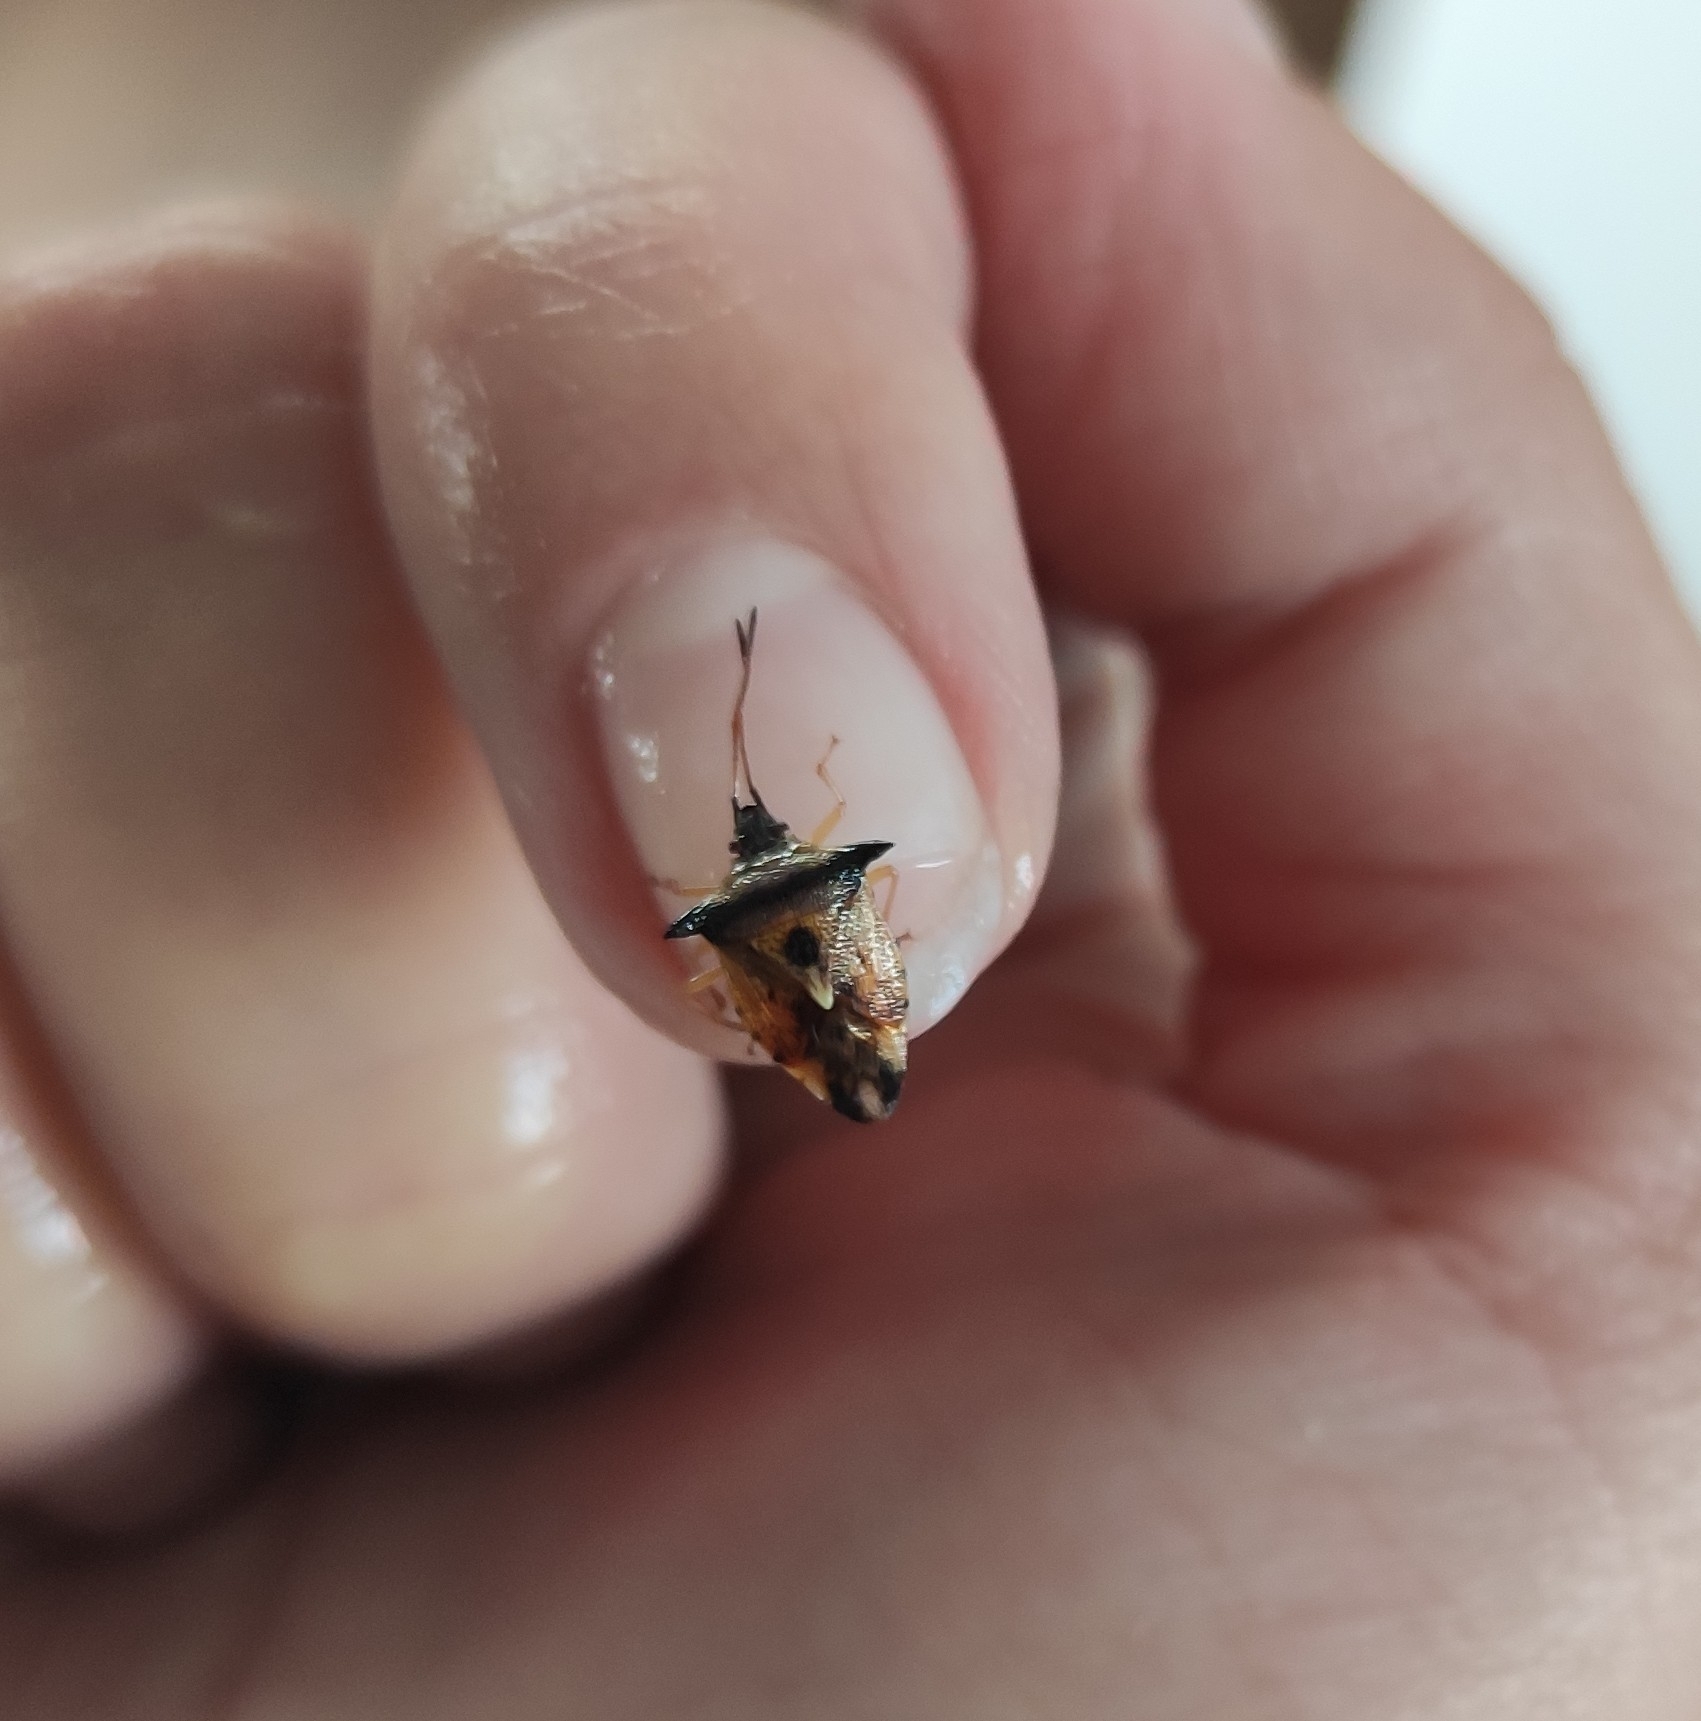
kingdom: Animalia
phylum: Arthropoda
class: Insecta
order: Hemiptera
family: Acanthosomatidae
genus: Elasmucha
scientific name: Elasmucha ferrugata
